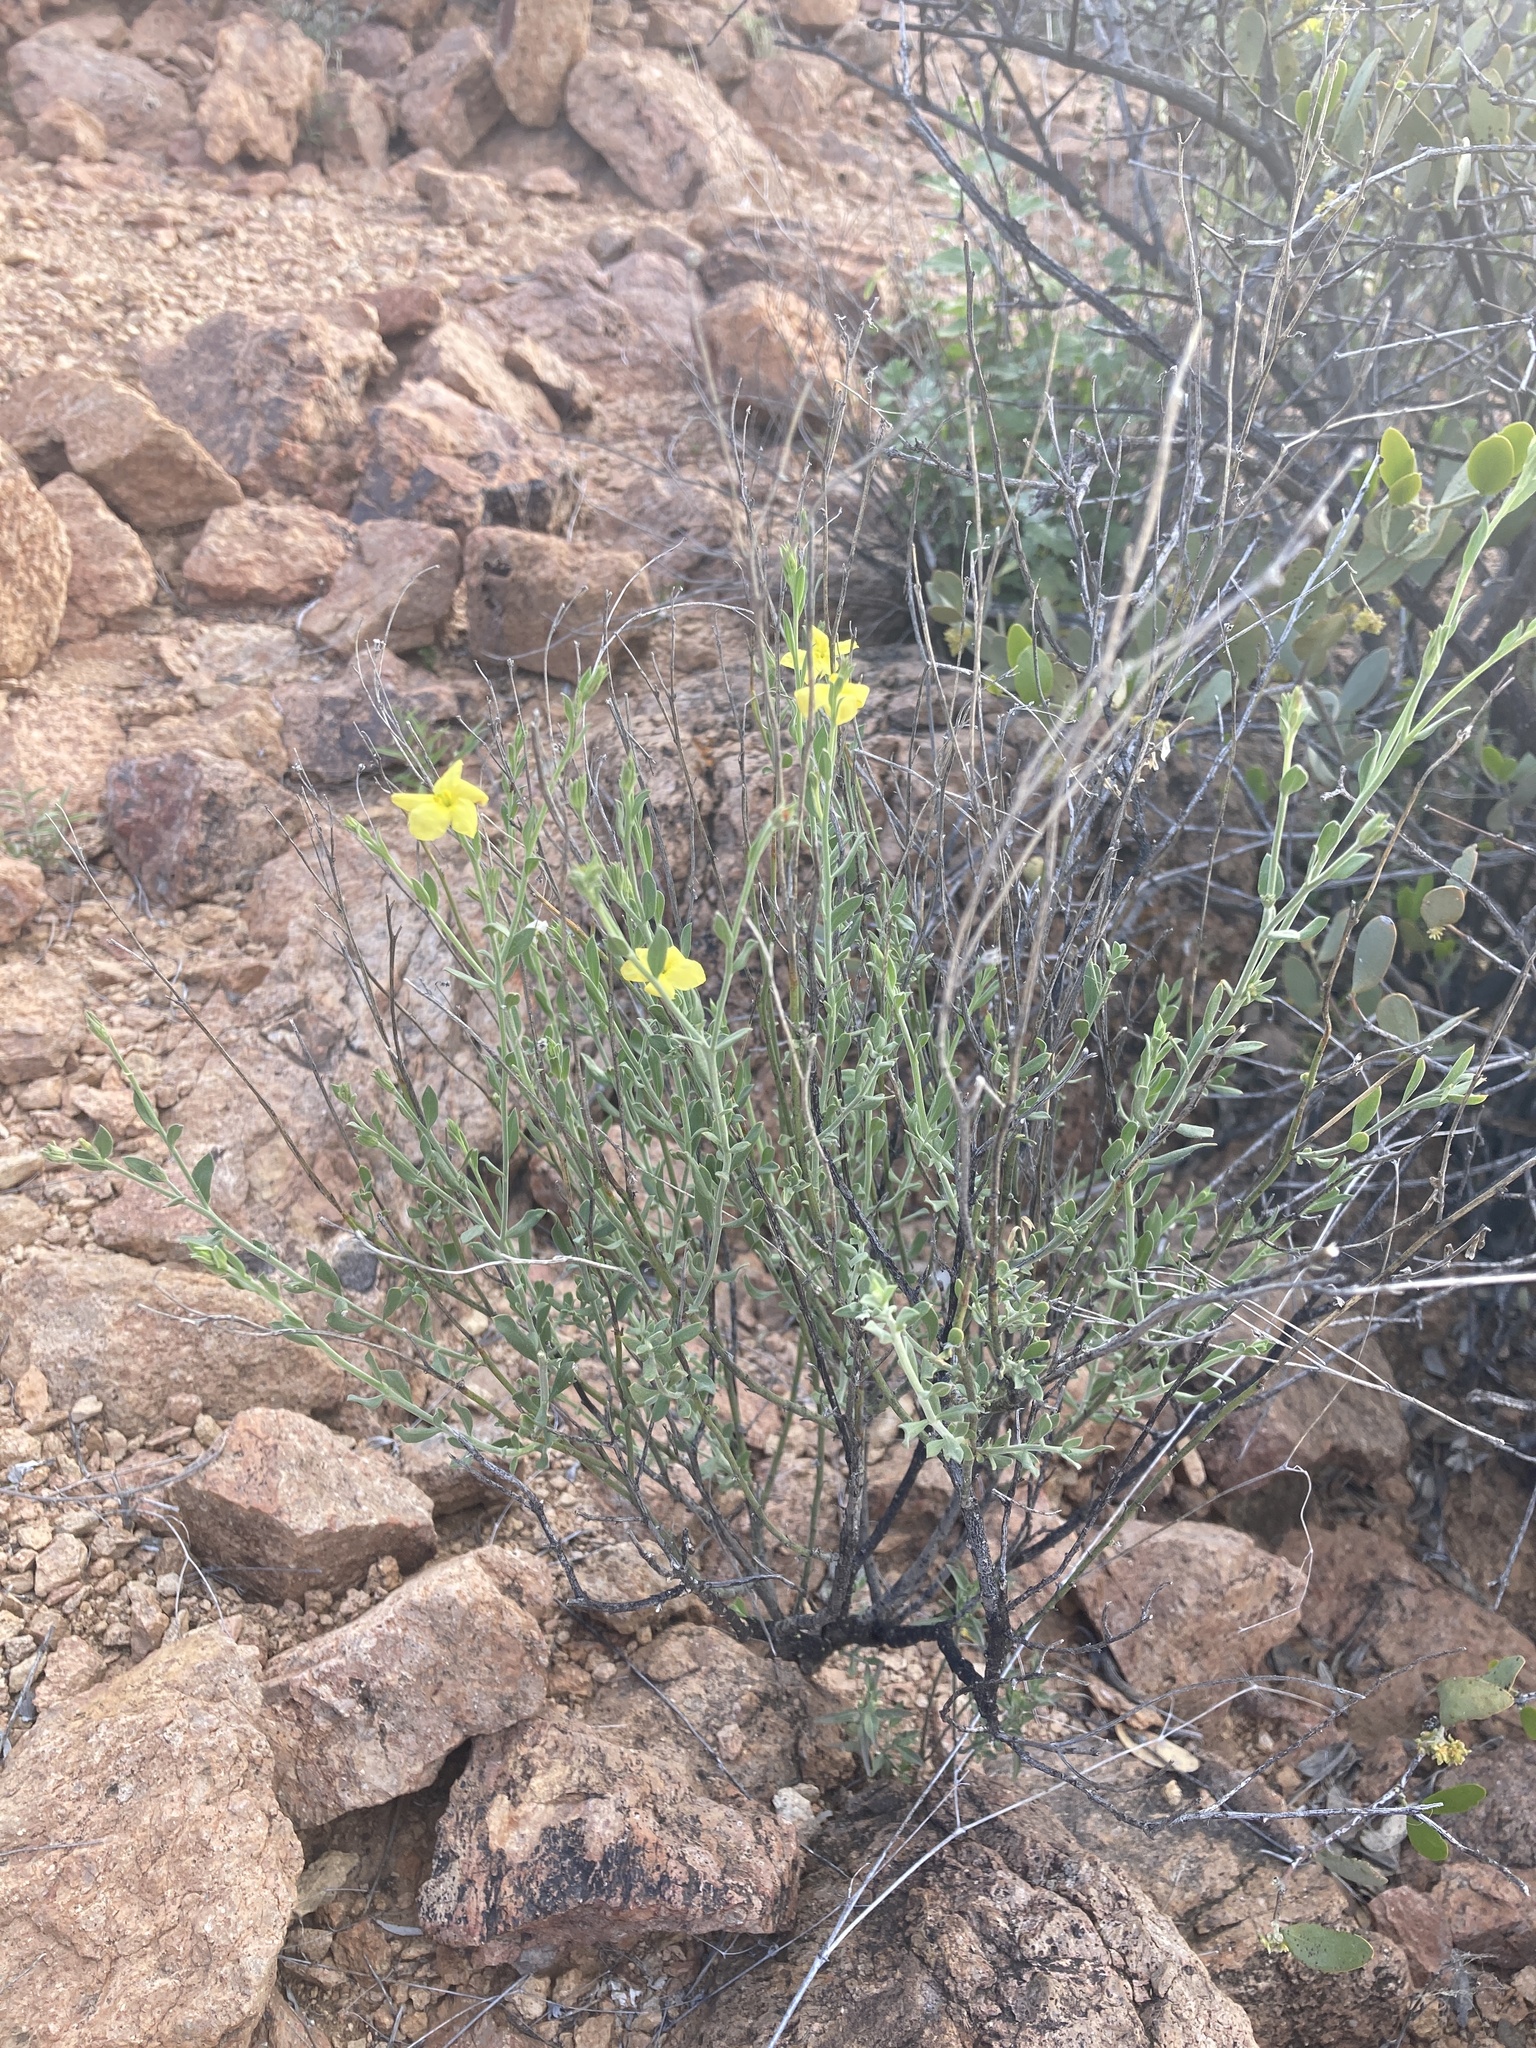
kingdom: Plantae
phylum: Tracheophyta
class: Magnoliopsida
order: Lamiales
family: Oleaceae
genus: Menodora
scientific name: Menodora scabra
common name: Rough menodora
